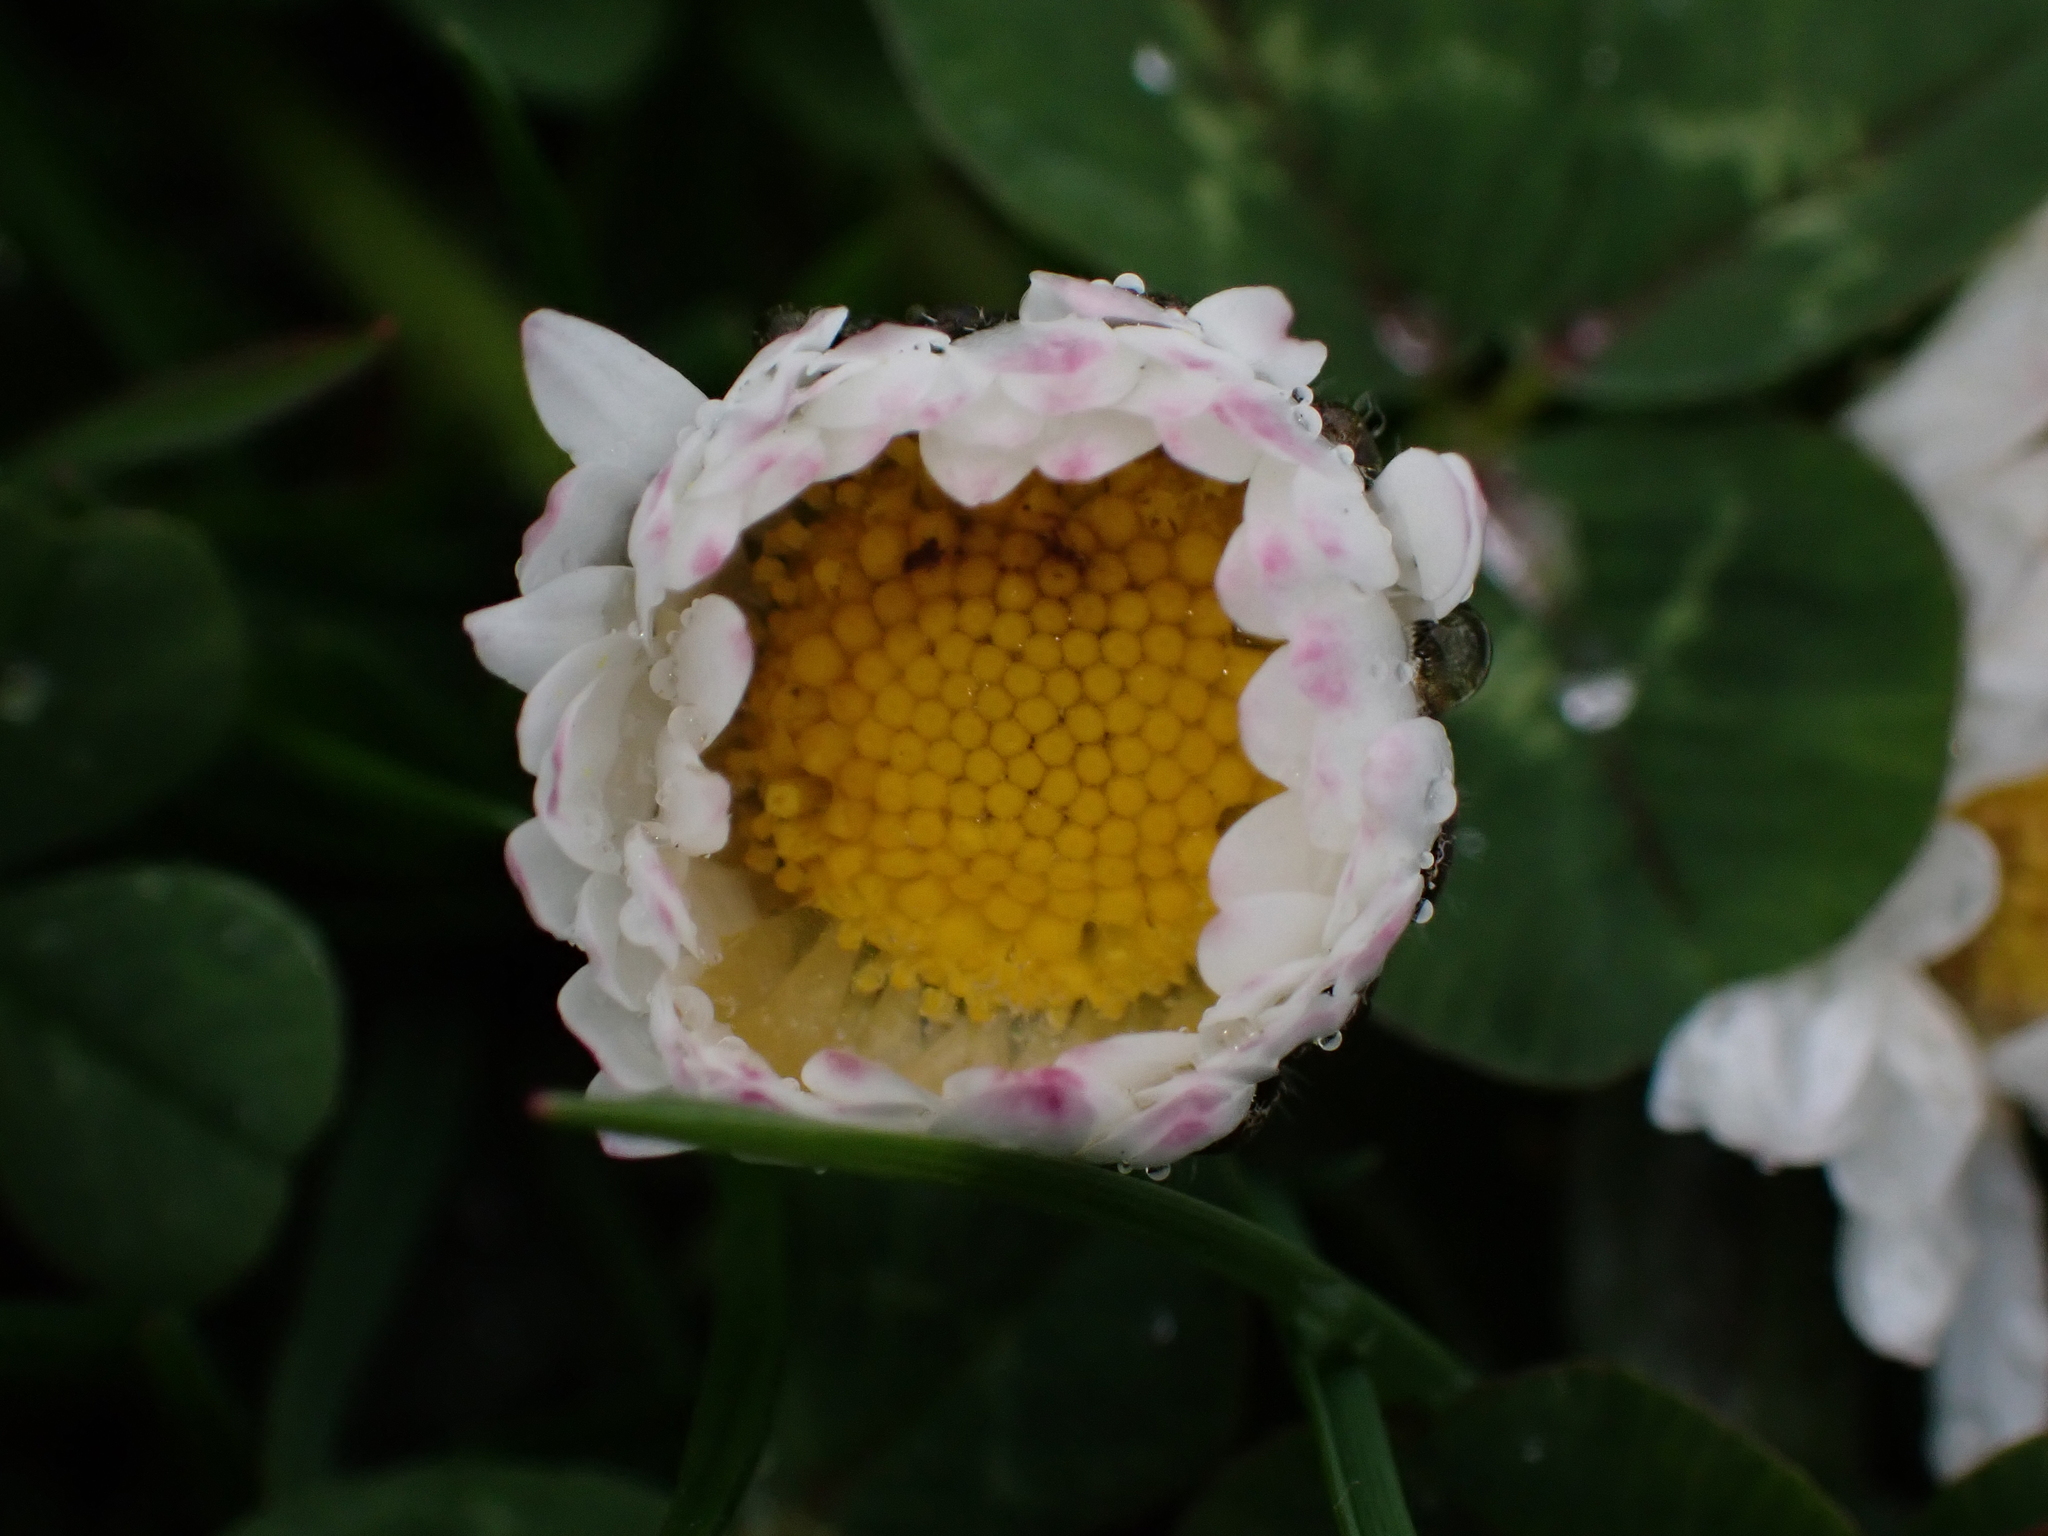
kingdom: Plantae
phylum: Tracheophyta
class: Magnoliopsida
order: Asterales
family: Asteraceae
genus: Bellis
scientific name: Bellis perennis
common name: Lawndaisy
